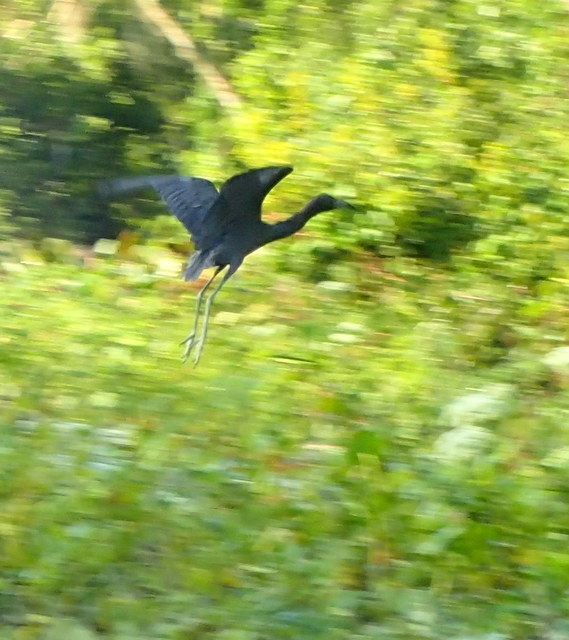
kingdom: Animalia
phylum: Chordata
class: Aves
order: Pelecaniformes
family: Ardeidae
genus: Egretta
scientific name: Egretta caerulea
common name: Little blue heron
